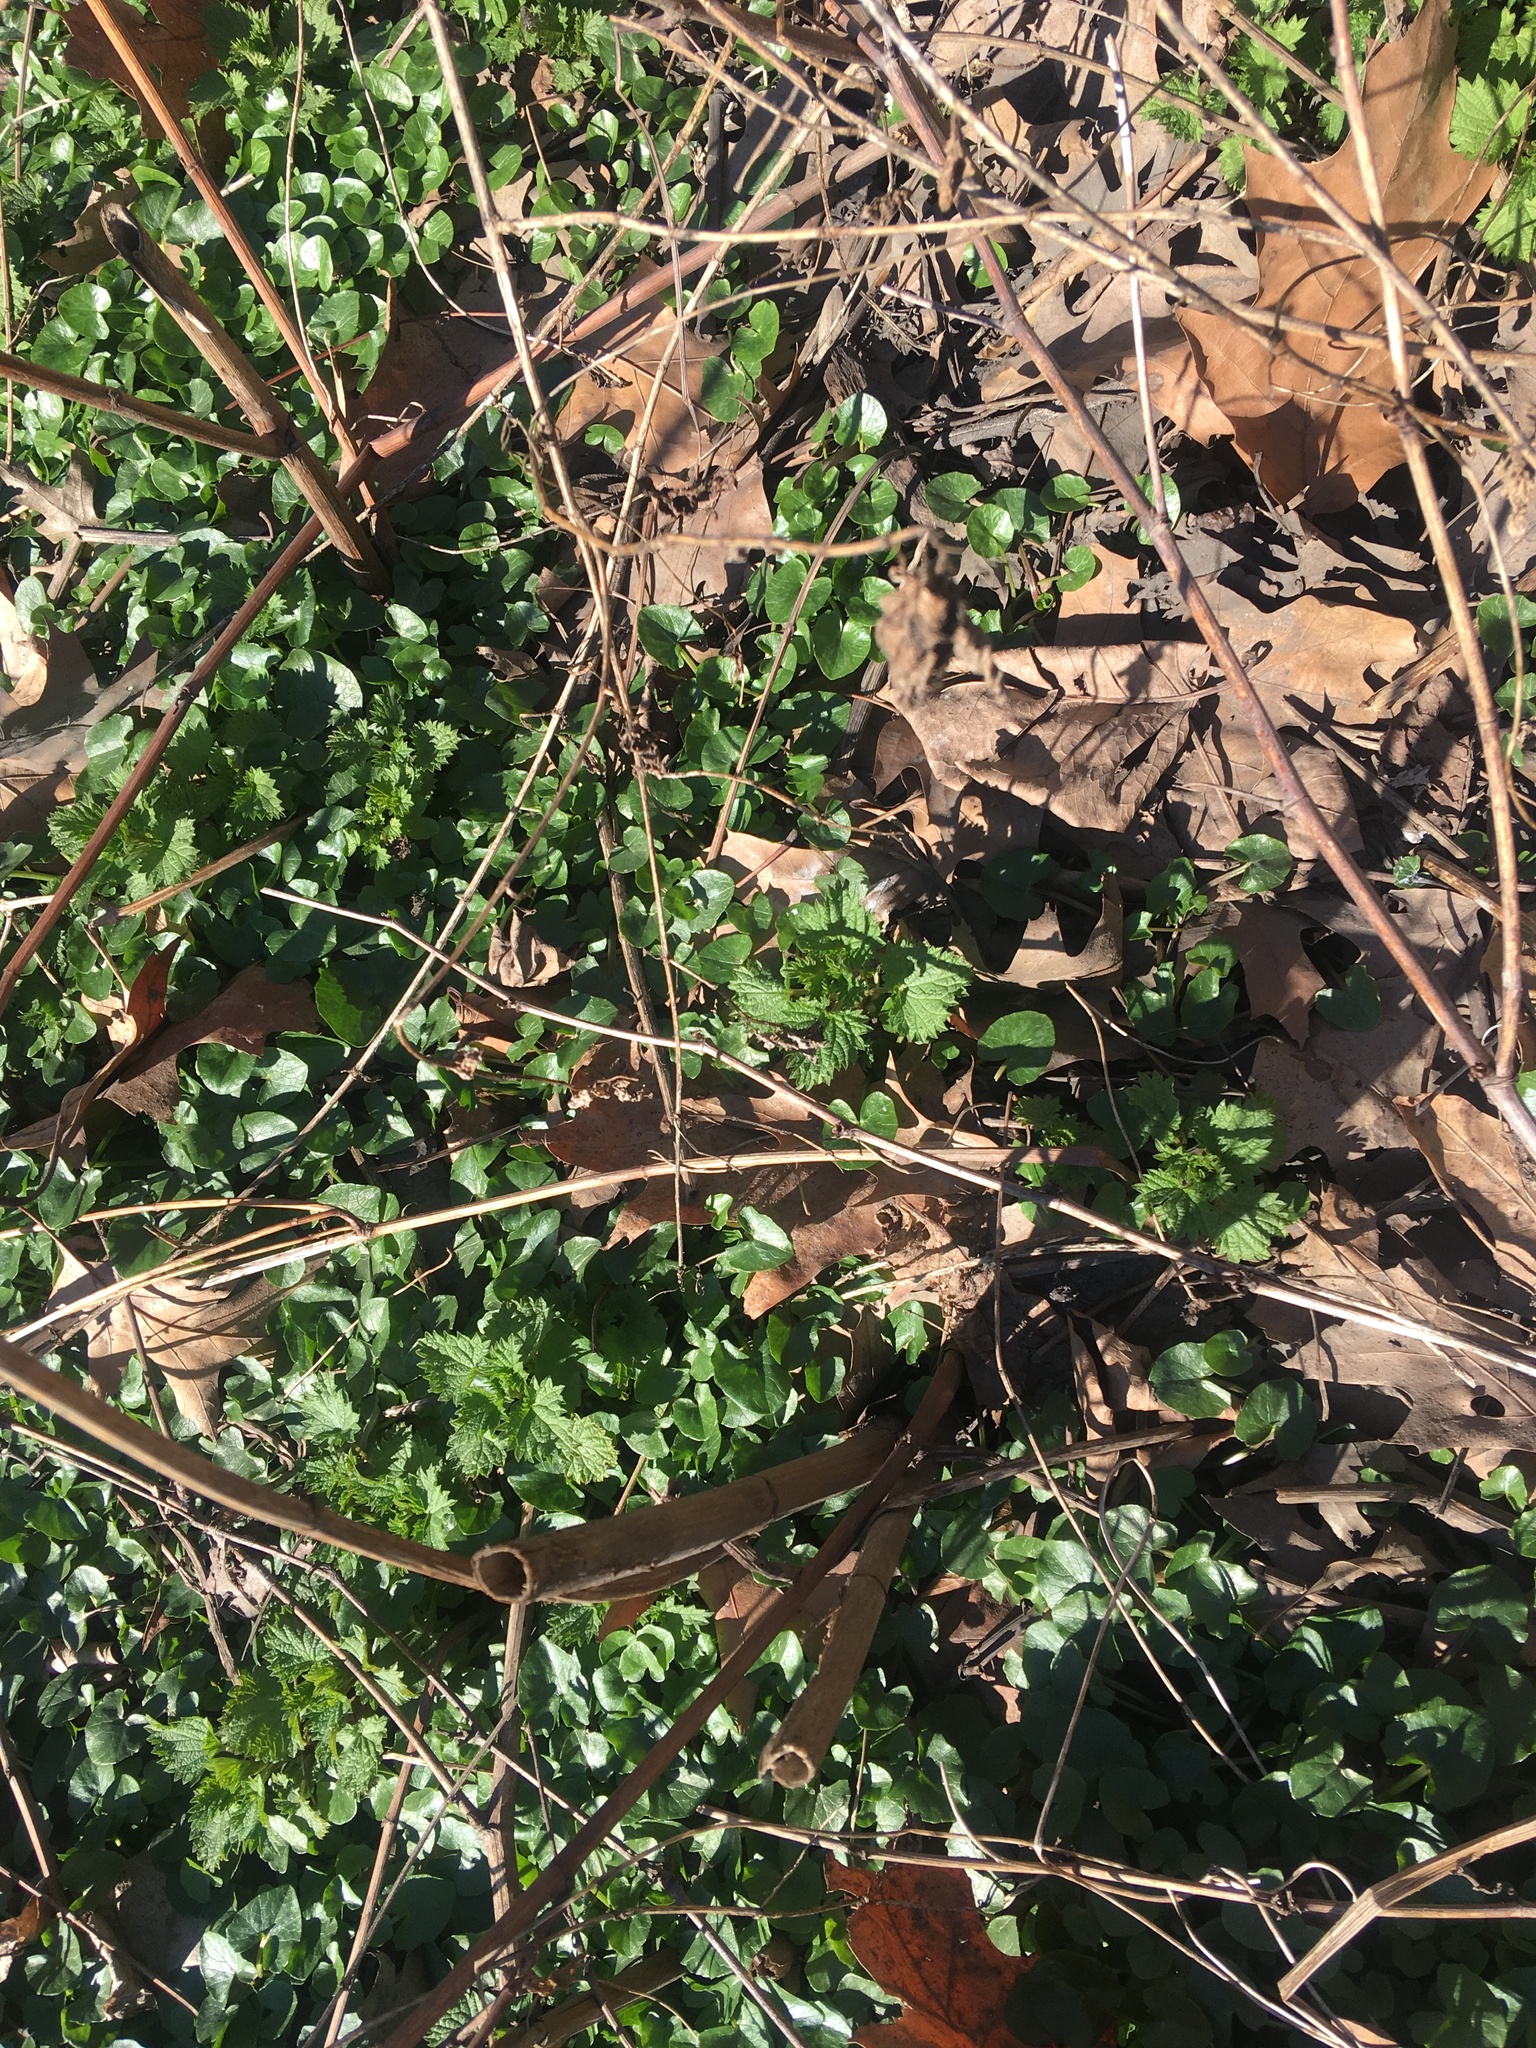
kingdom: Plantae
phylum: Tracheophyta
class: Magnoliopsida
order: Ranunculales
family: Ranunculaceae
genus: Ficaria
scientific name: Ficaria verna
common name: Lesser celandine
